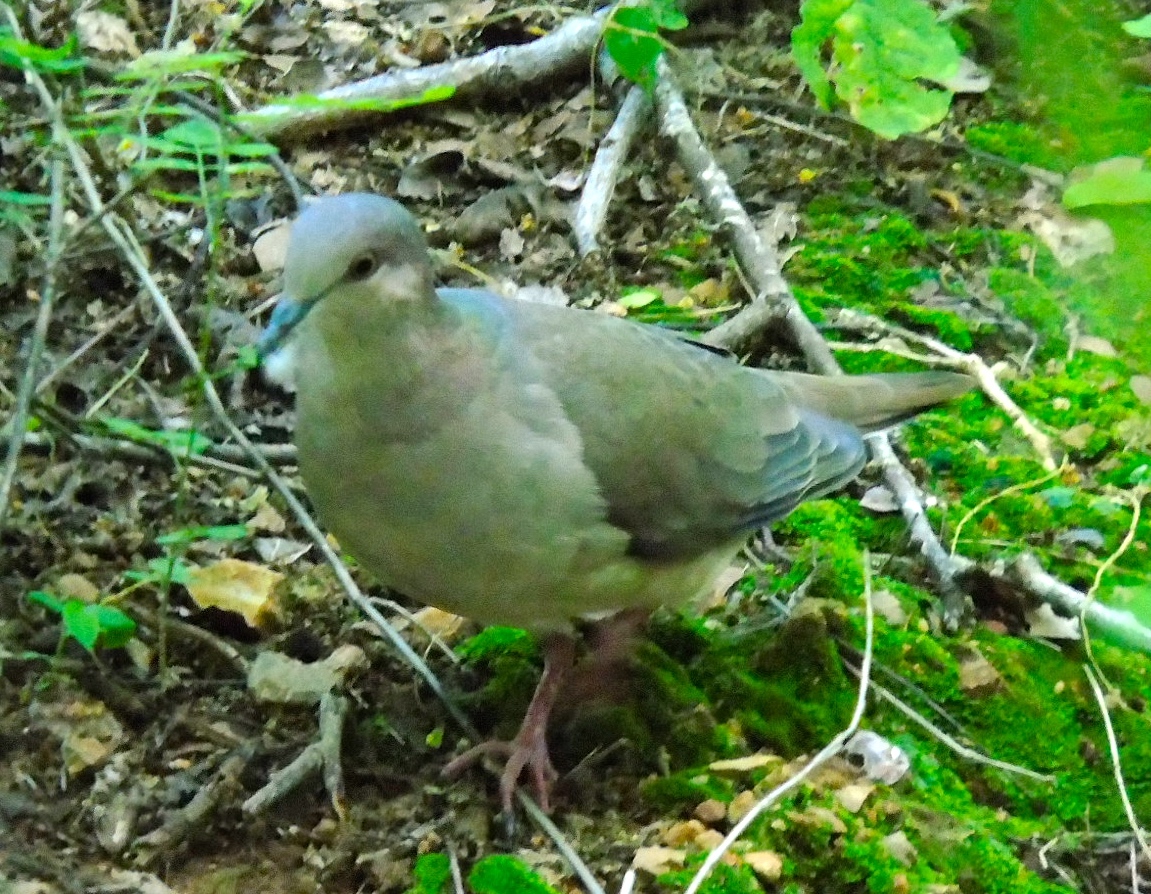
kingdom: Animalia
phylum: Chordata
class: Aves
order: Columbiformes
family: Columbidae
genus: Leptotila
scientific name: Leptotila verreauxi
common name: White-tipped dove
